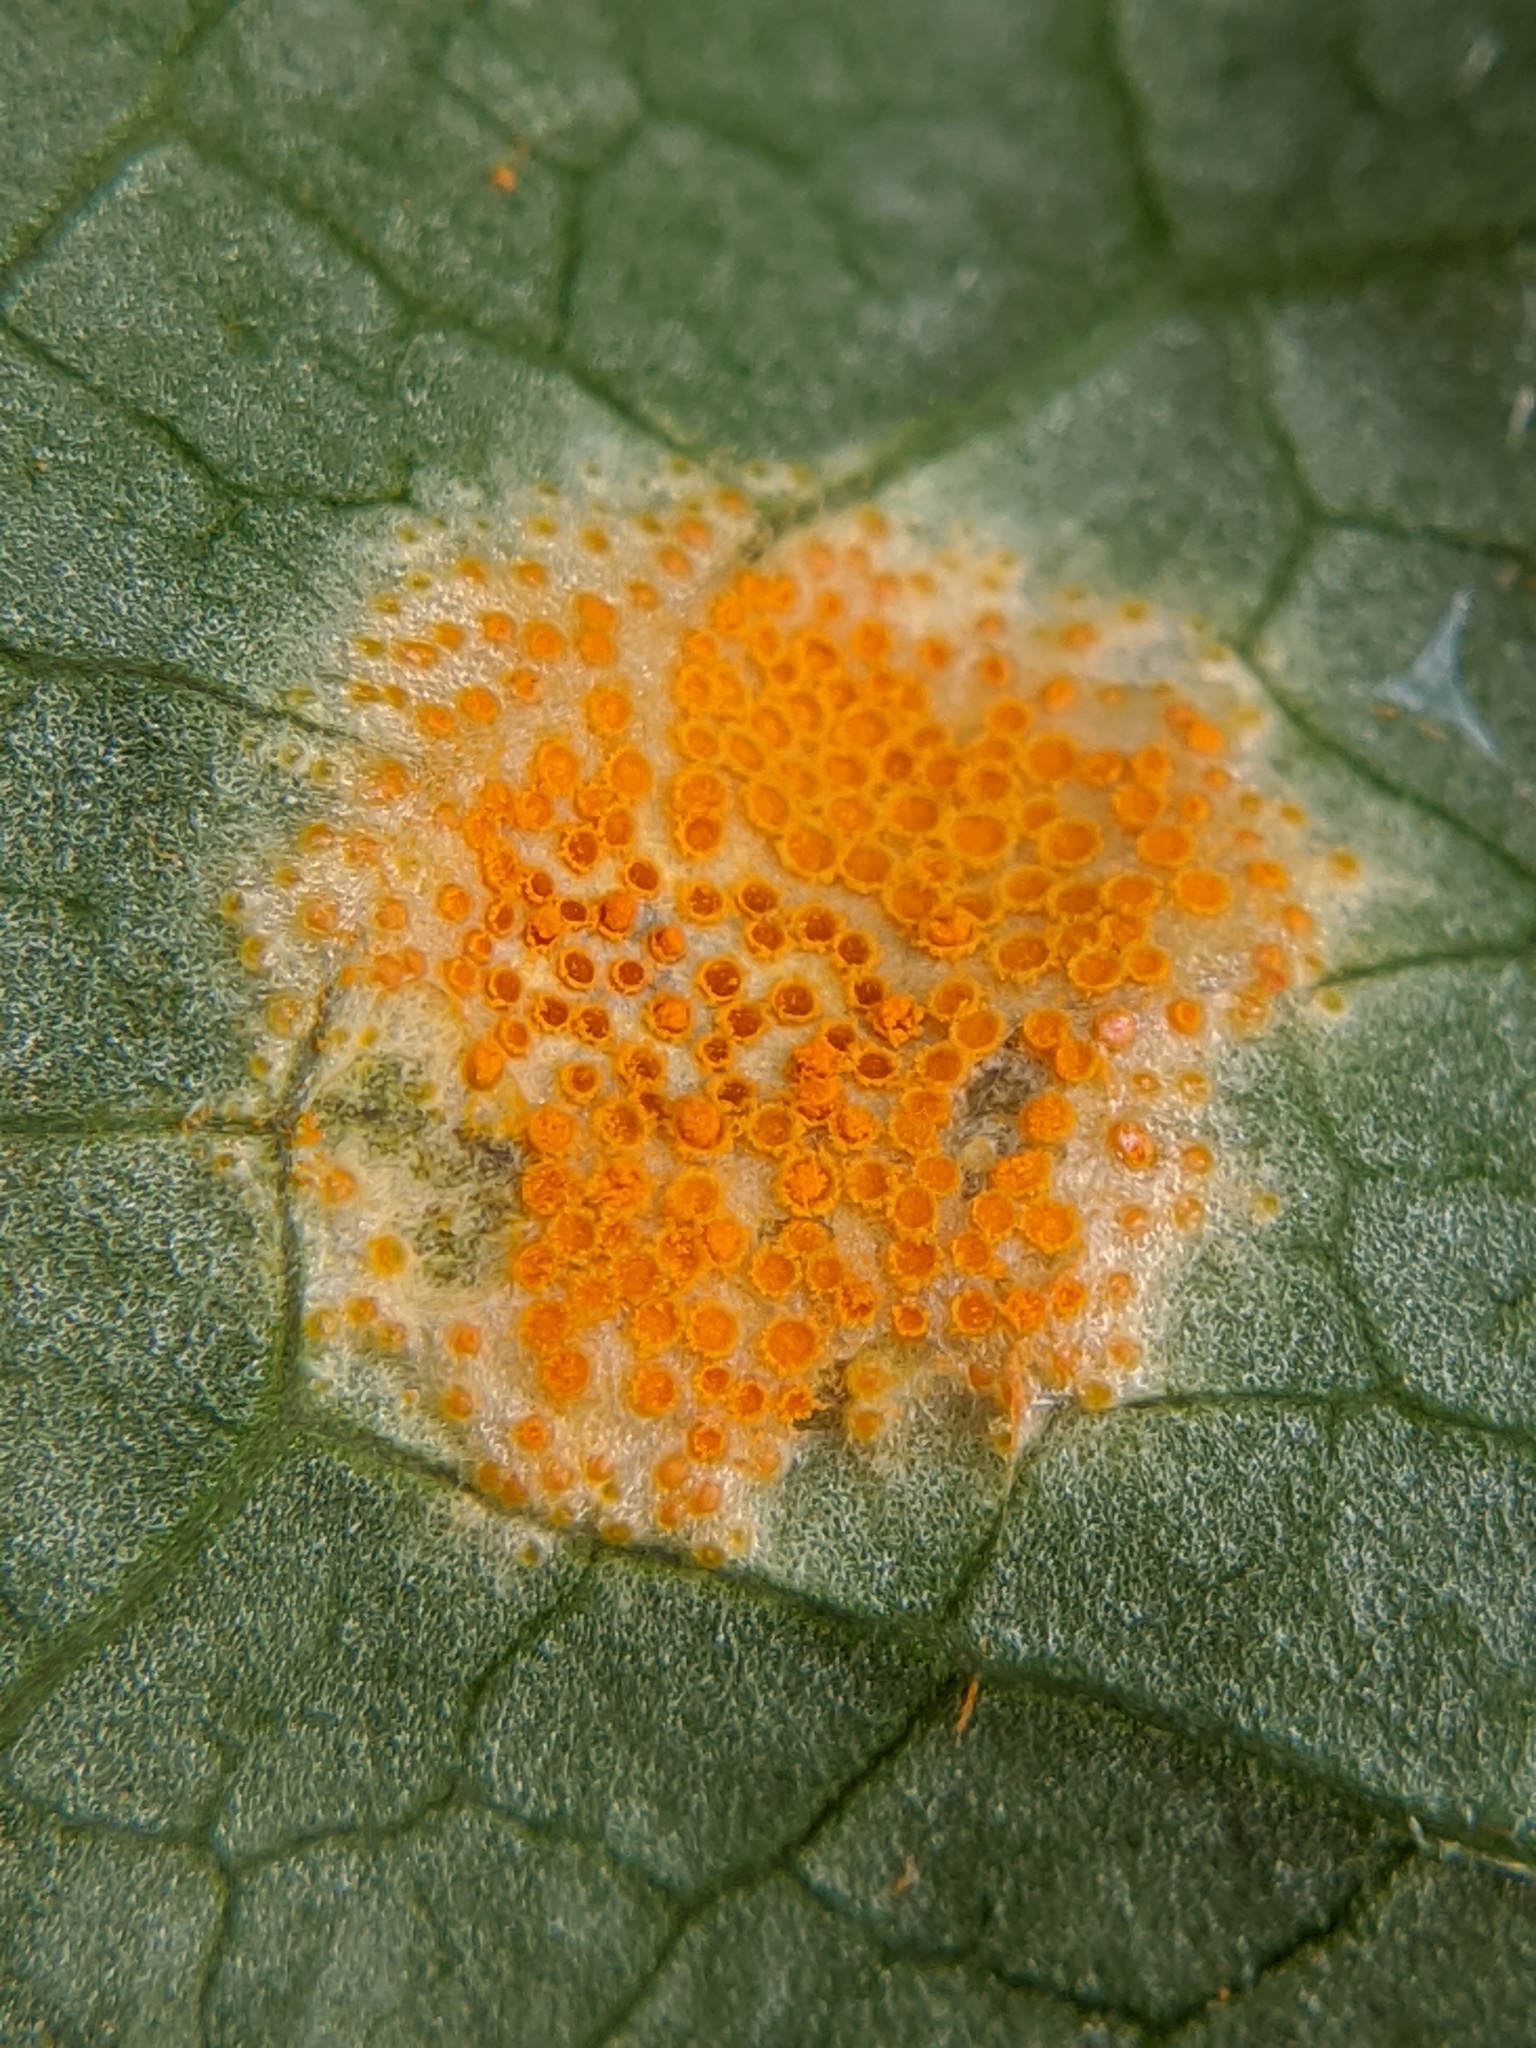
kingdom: Fungi
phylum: Basidiomycota
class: Pucciniomycetes
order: Pucciniales
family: Pucciniaceae
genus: Puccinia
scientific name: Puccinia podophylli
